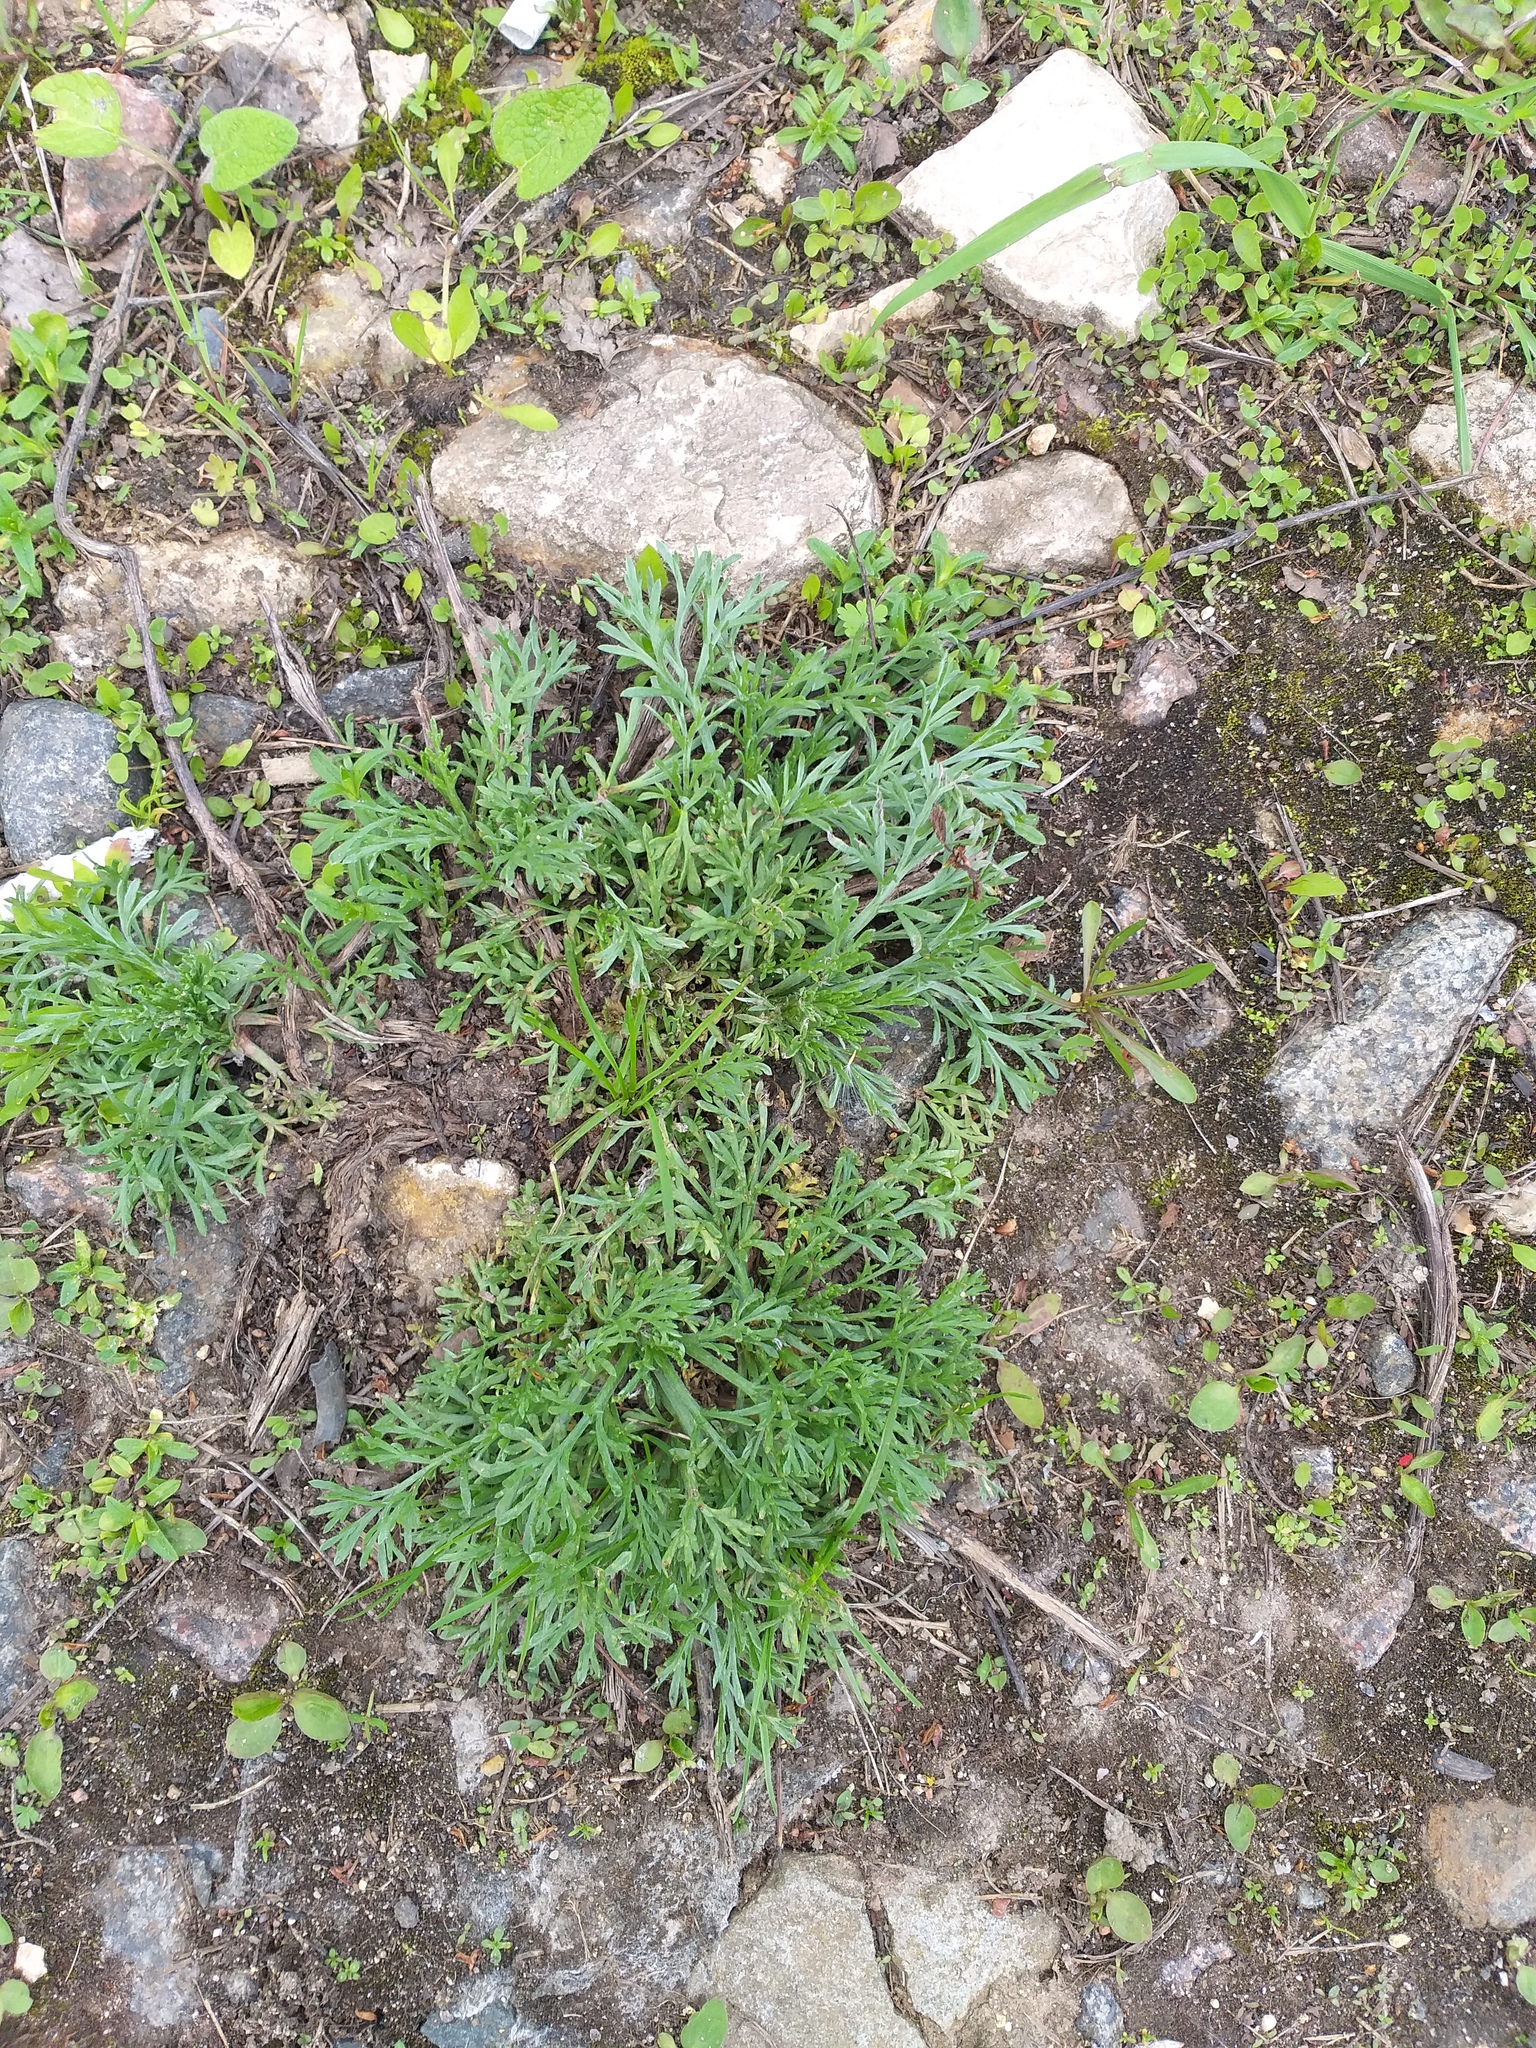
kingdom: Plantae
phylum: Tracheophyta
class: Magnoliopsida
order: Asterales
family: Asteraceae
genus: Artemisia
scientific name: Artemisia campestris
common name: Field wormwood
